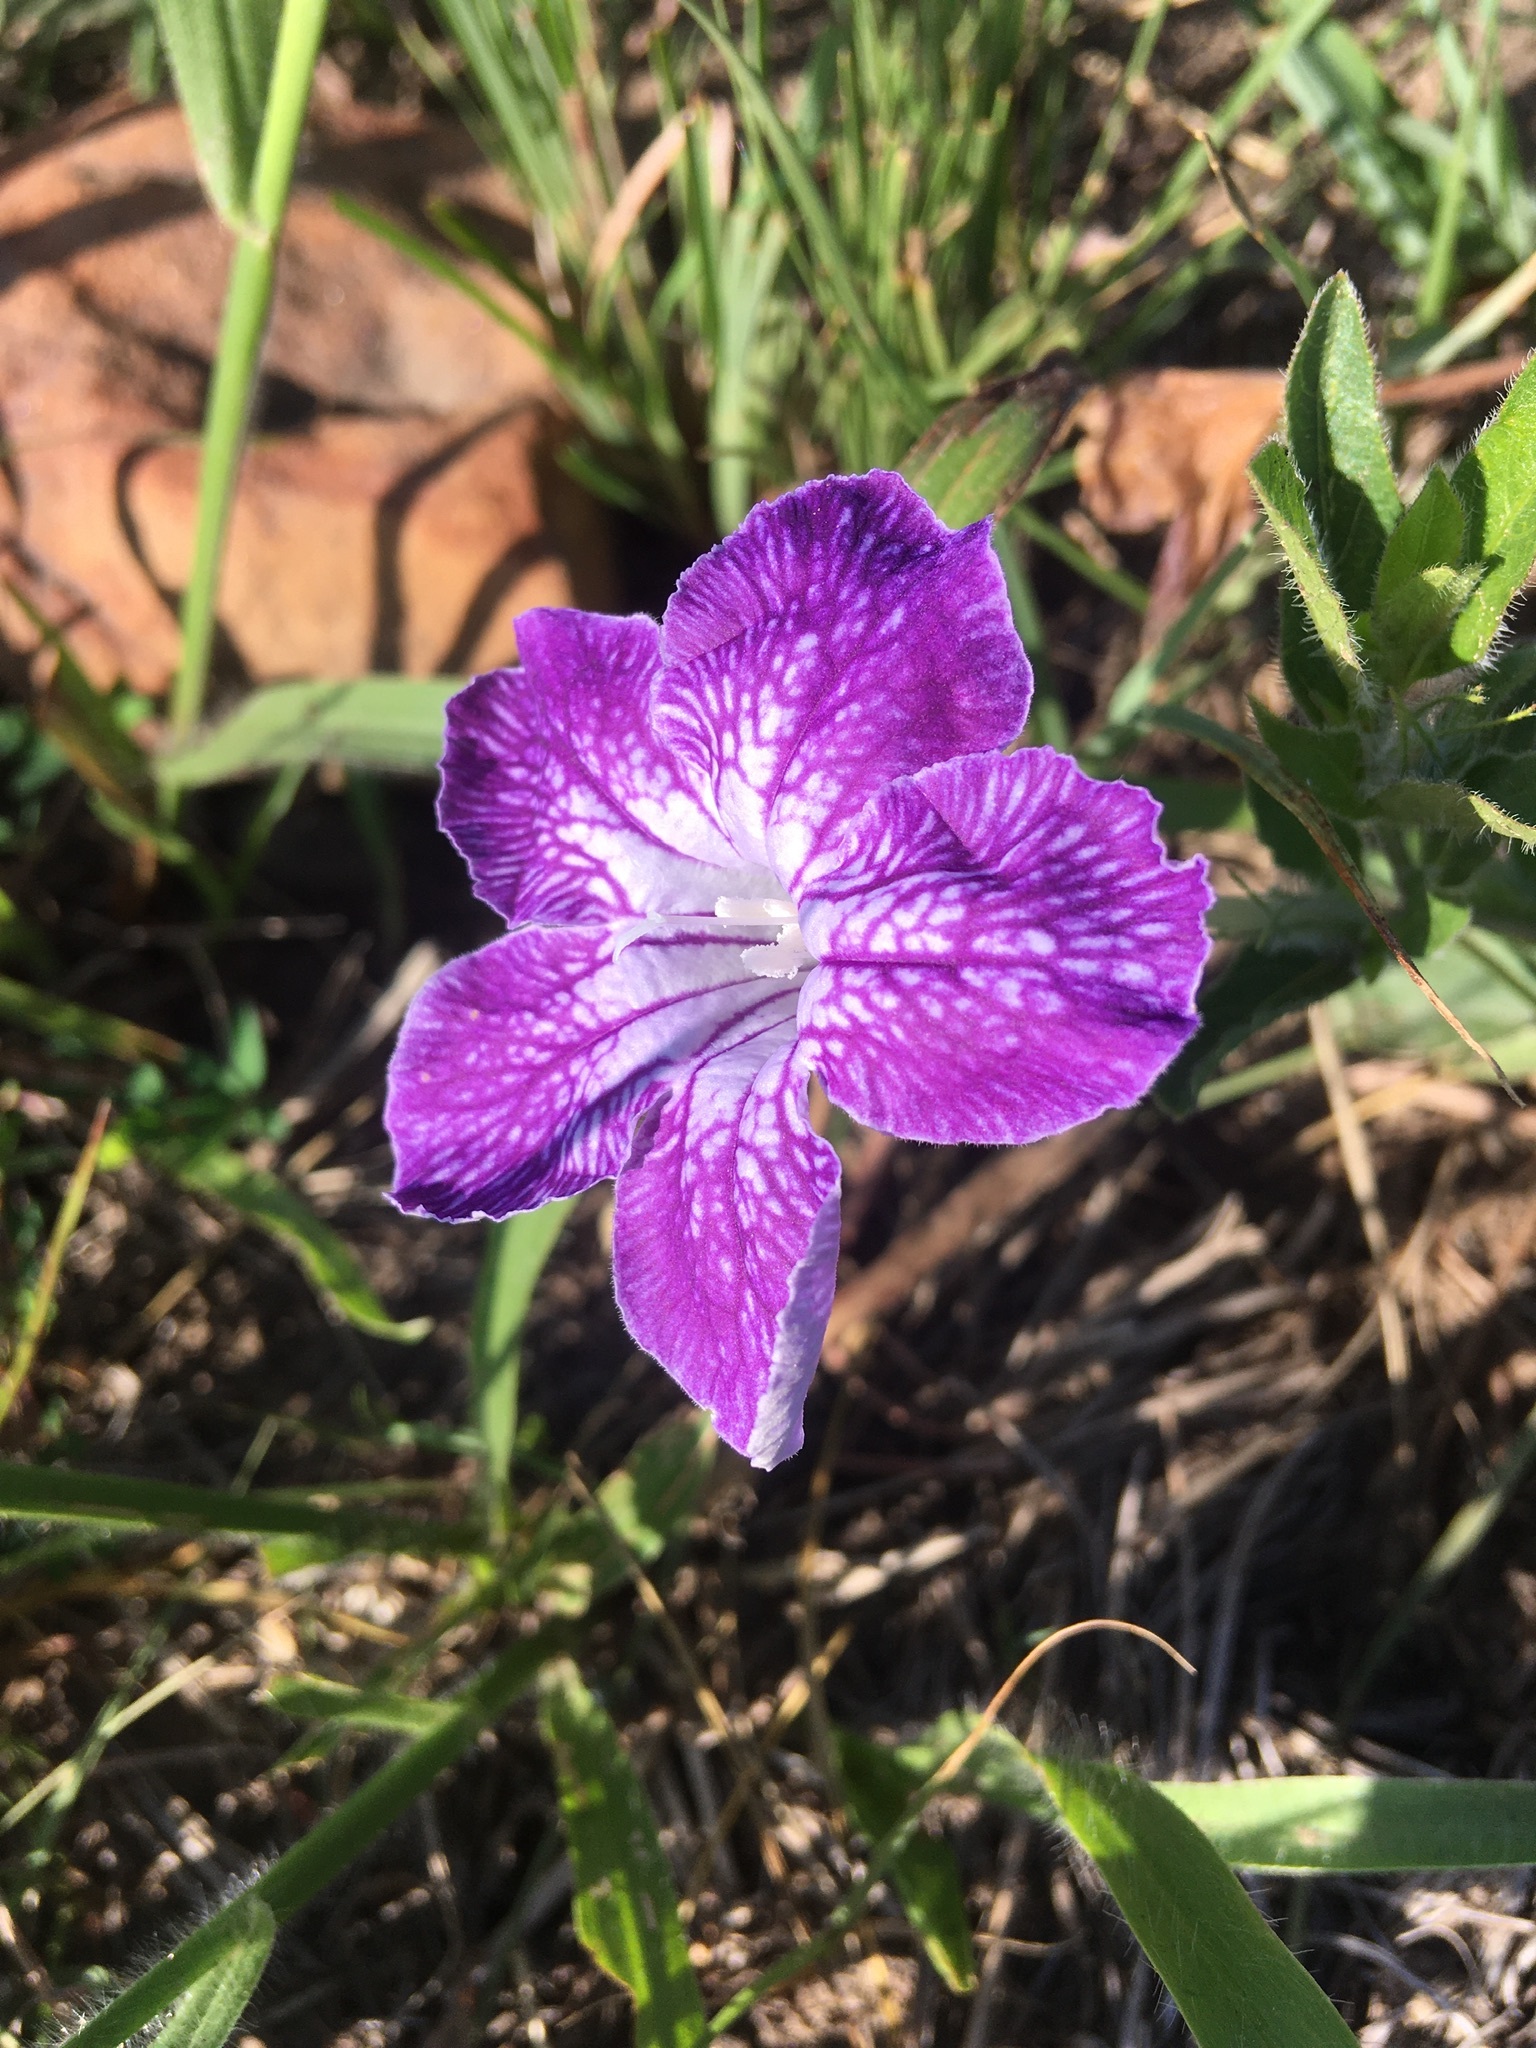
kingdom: Plantae
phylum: Tracheophyta
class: Magnoliopsida
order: Lamiales
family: Acanthaceae
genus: Ruellia
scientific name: Ruellia humilis
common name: Fringe-leaf ruellia
